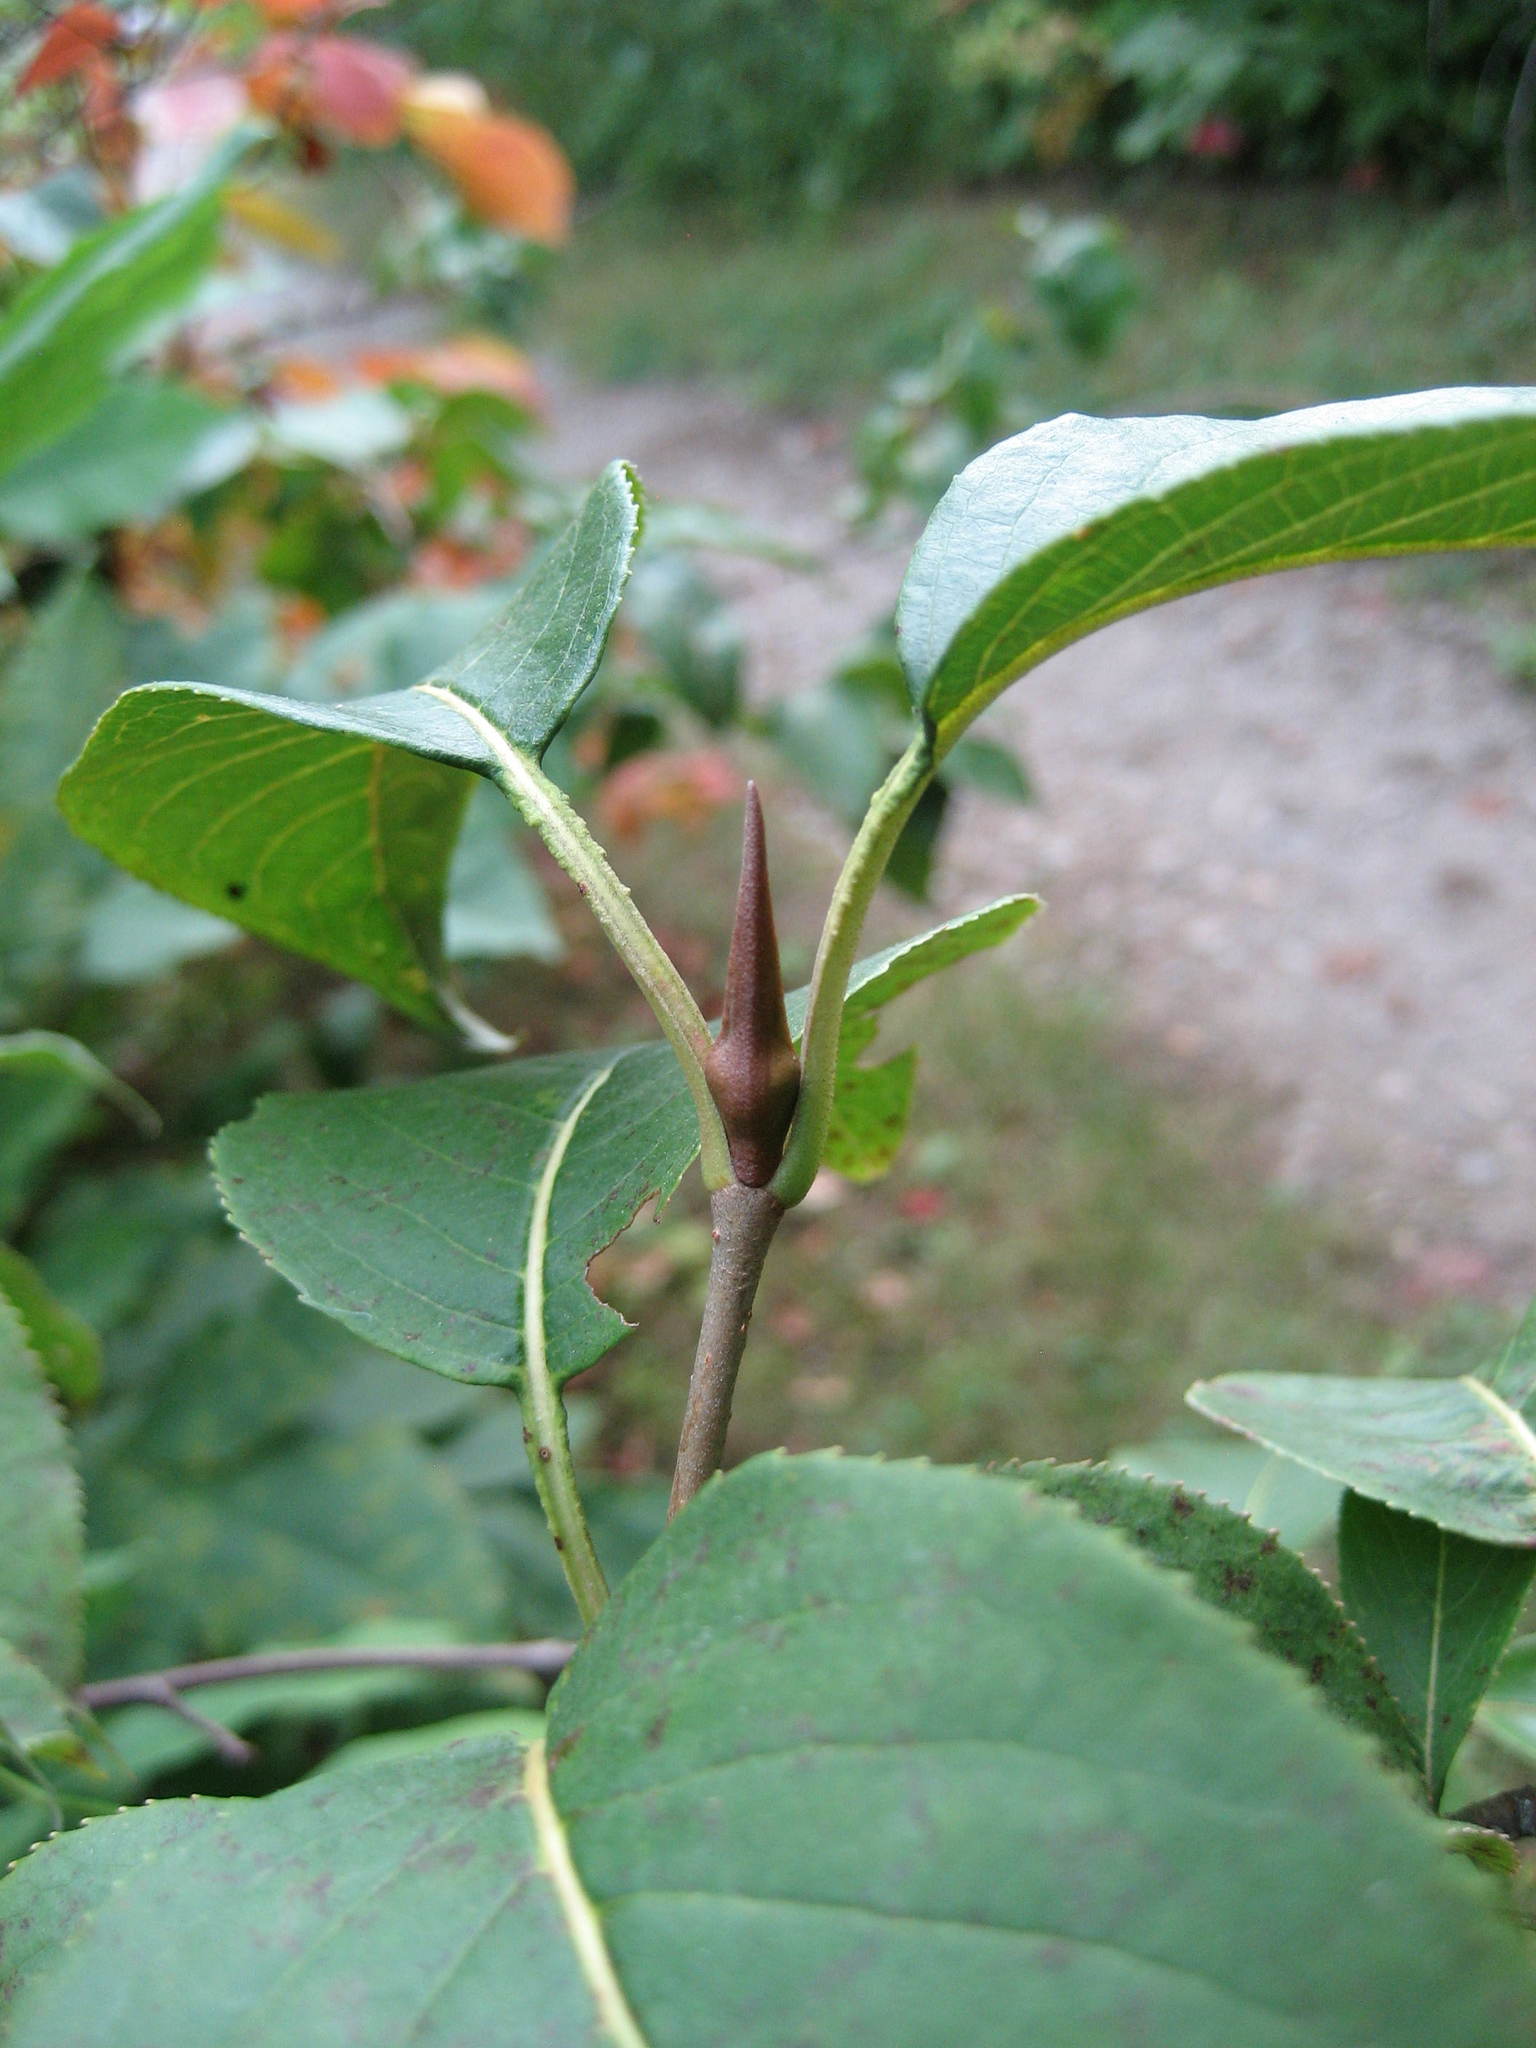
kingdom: Plantae
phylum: Tracheophyta
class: Magnoliopsida
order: Dipsacales
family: Viburnaceae
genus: Viburnum
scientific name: Viburnum lentago
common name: Black haw
